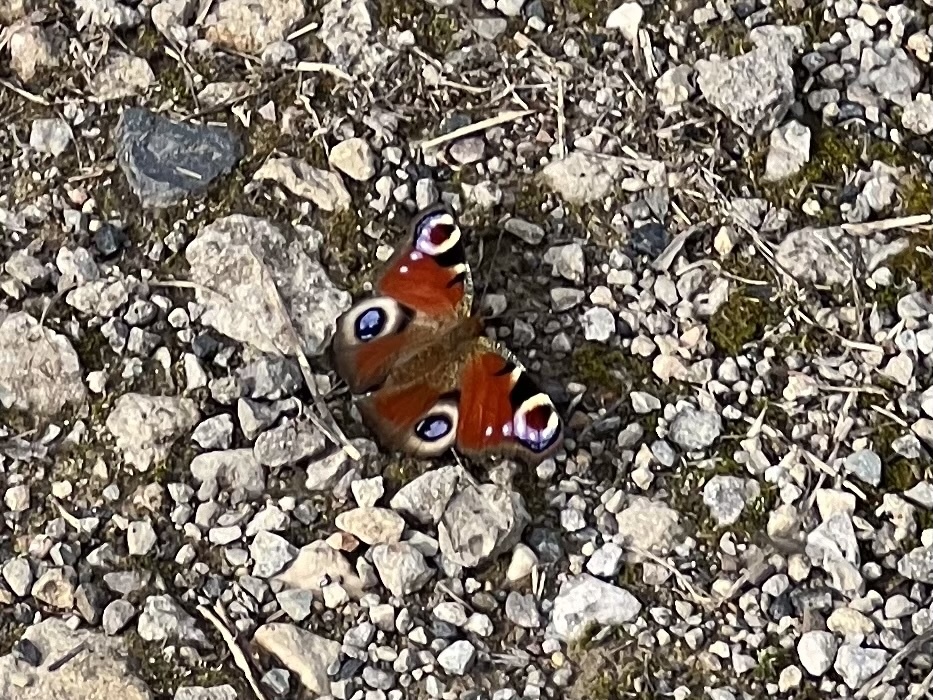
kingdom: Animalia
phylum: Arthropoda
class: Insecta
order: Lepidoptera
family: Nymphalidae
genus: Aglais
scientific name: Aglais io
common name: Peacock
